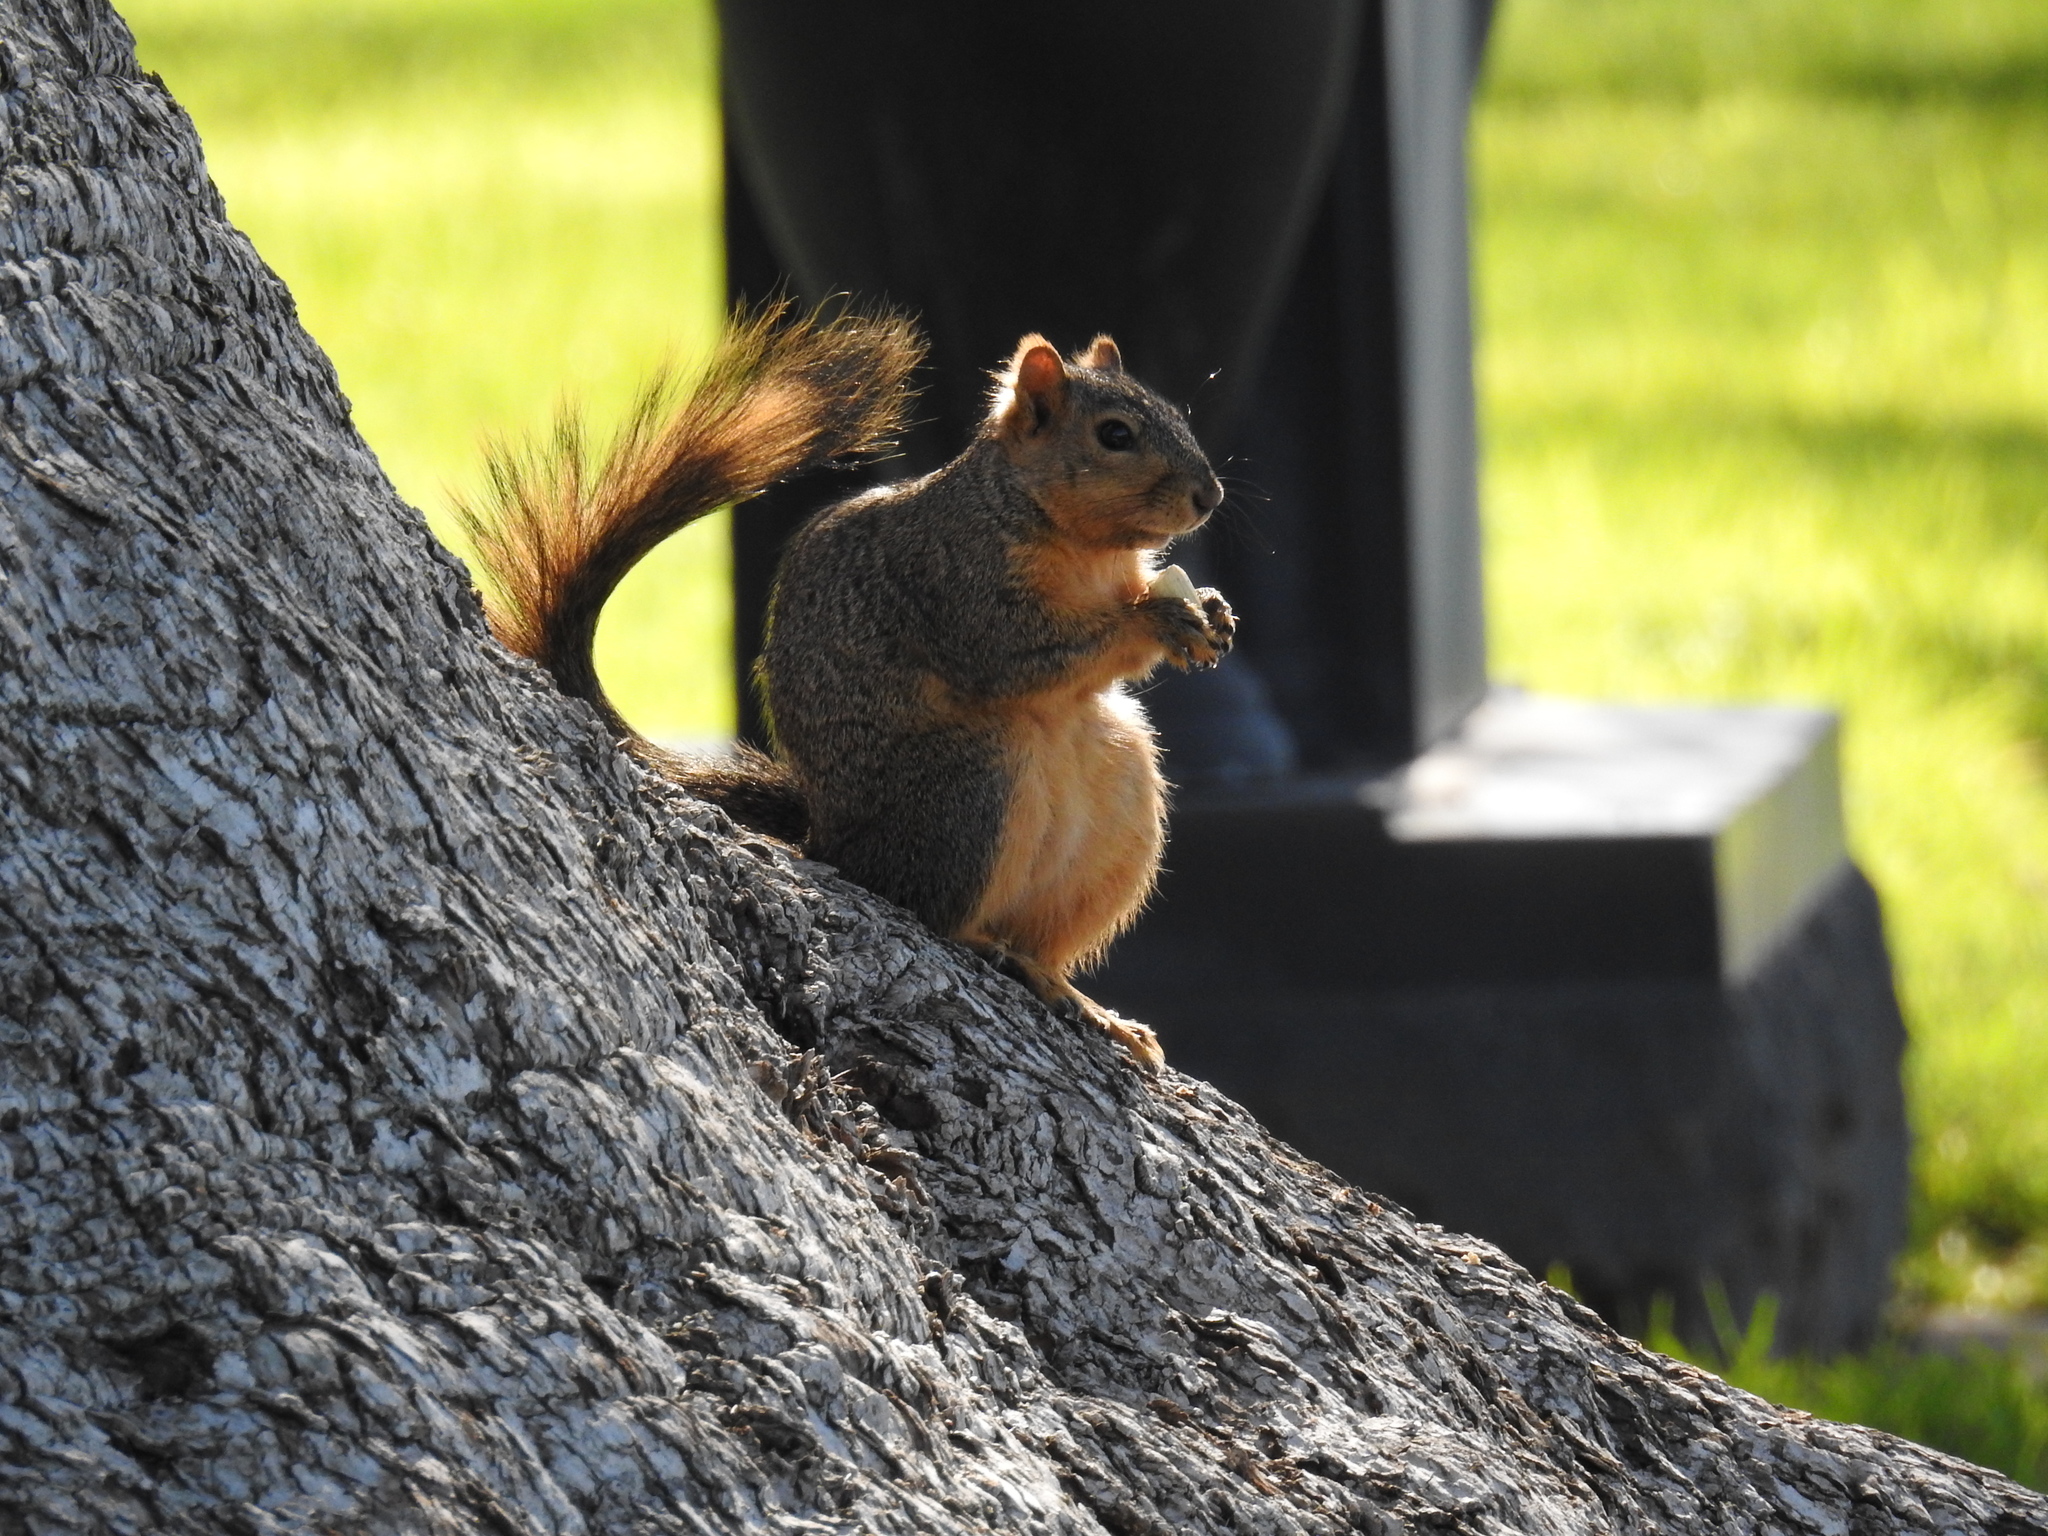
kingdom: Animalia
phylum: Chordata
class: Mammalia
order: Rodentia
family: Sciuridae
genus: Sciurus
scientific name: Sciurus niger
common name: Fox squirrel
